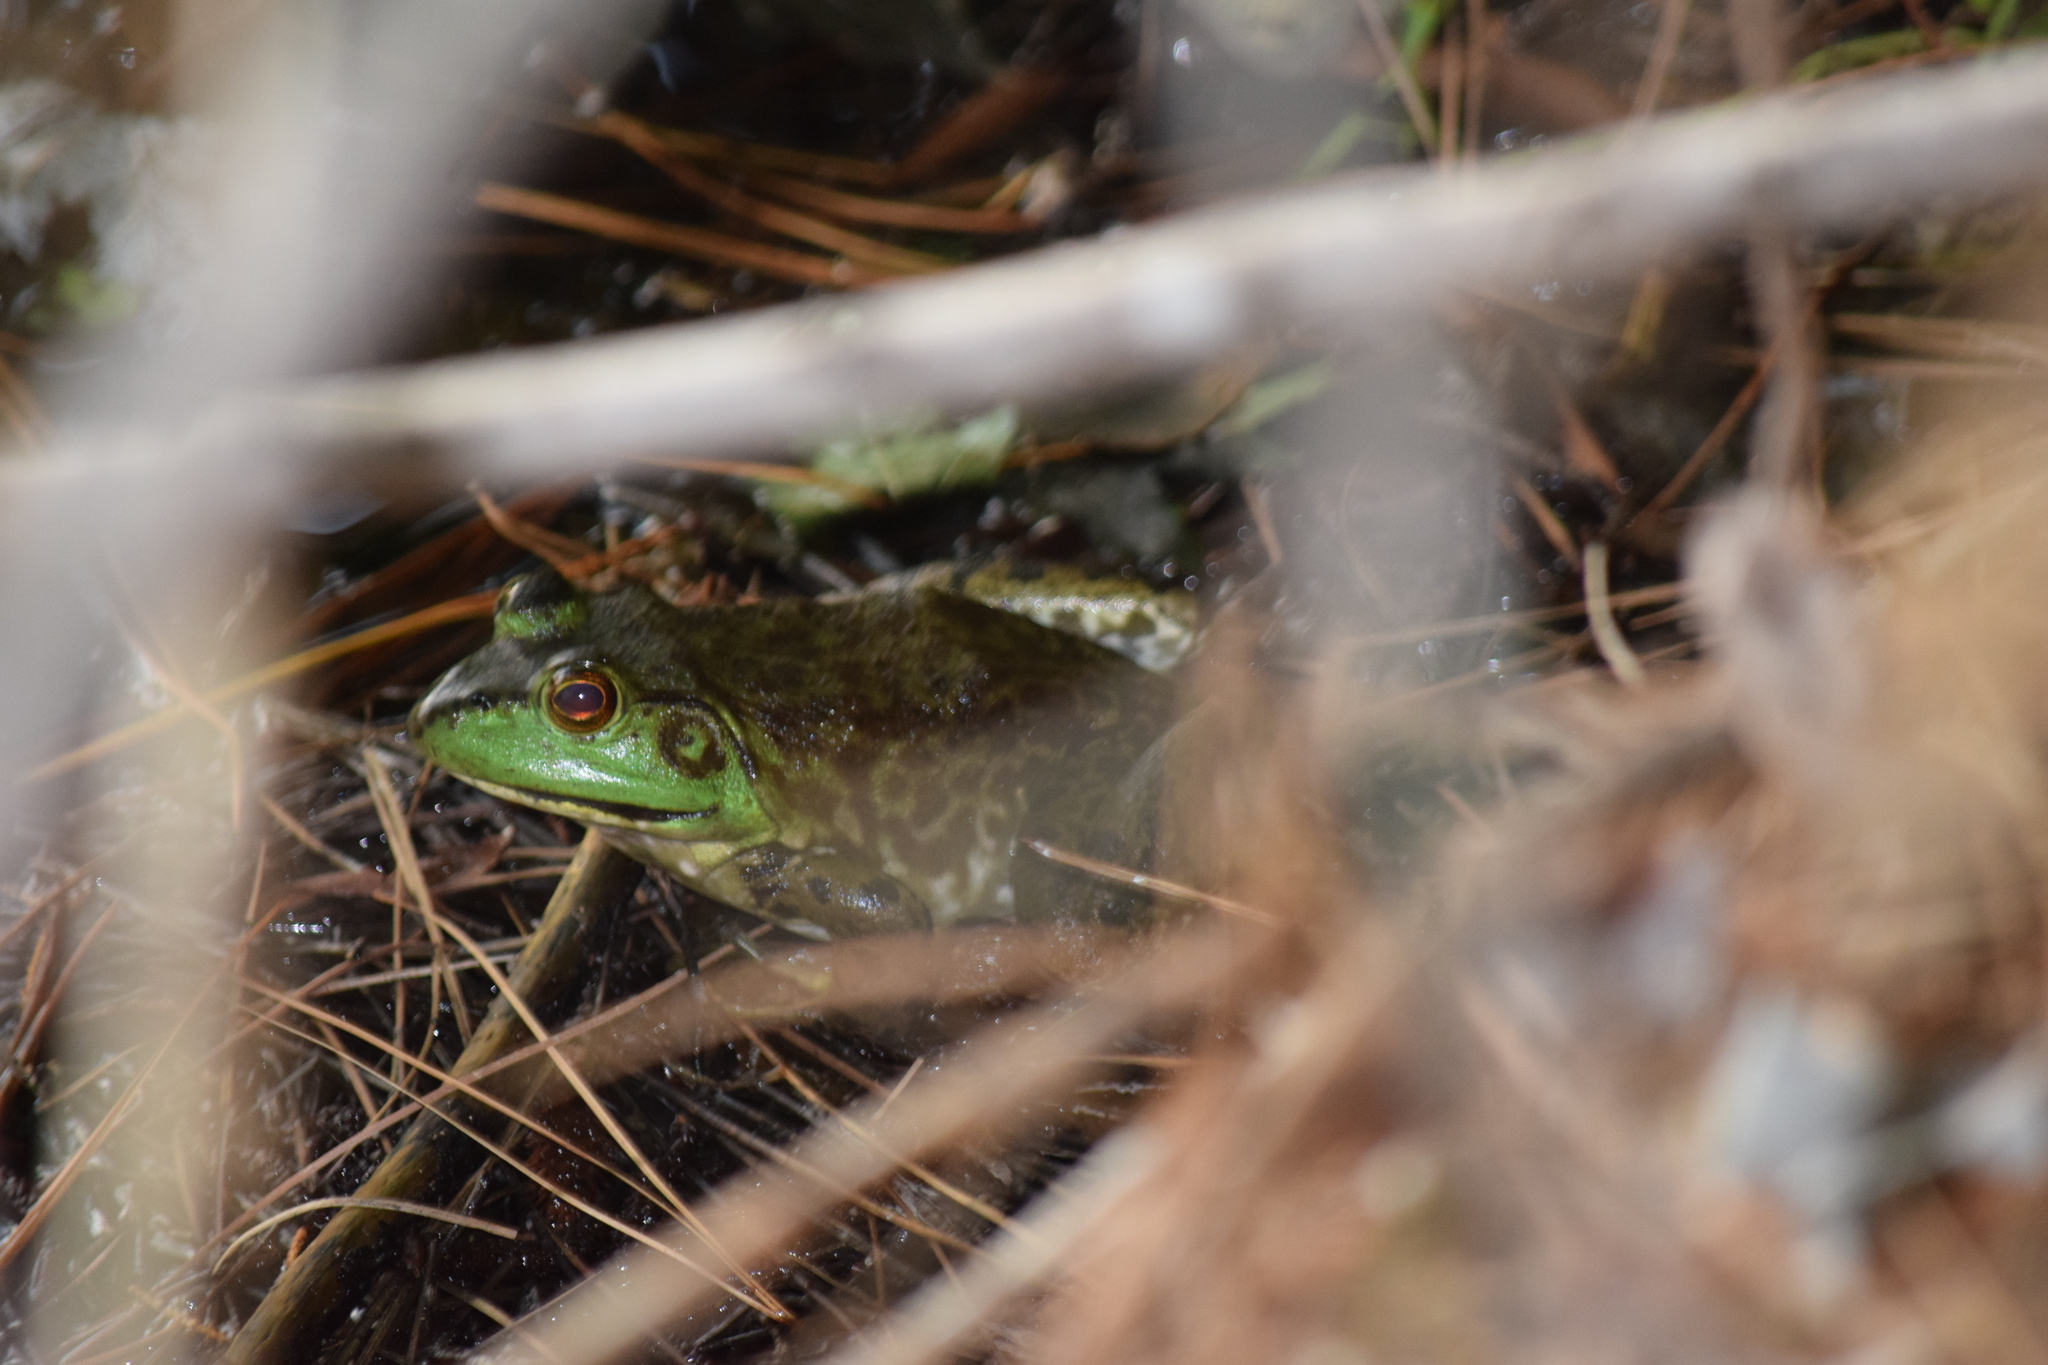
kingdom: Animalia
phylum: Chordata
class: Amphibia
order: Anura
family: Ranidae
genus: Lithobates
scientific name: Lithobates catesbeianus
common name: American bullfrog
